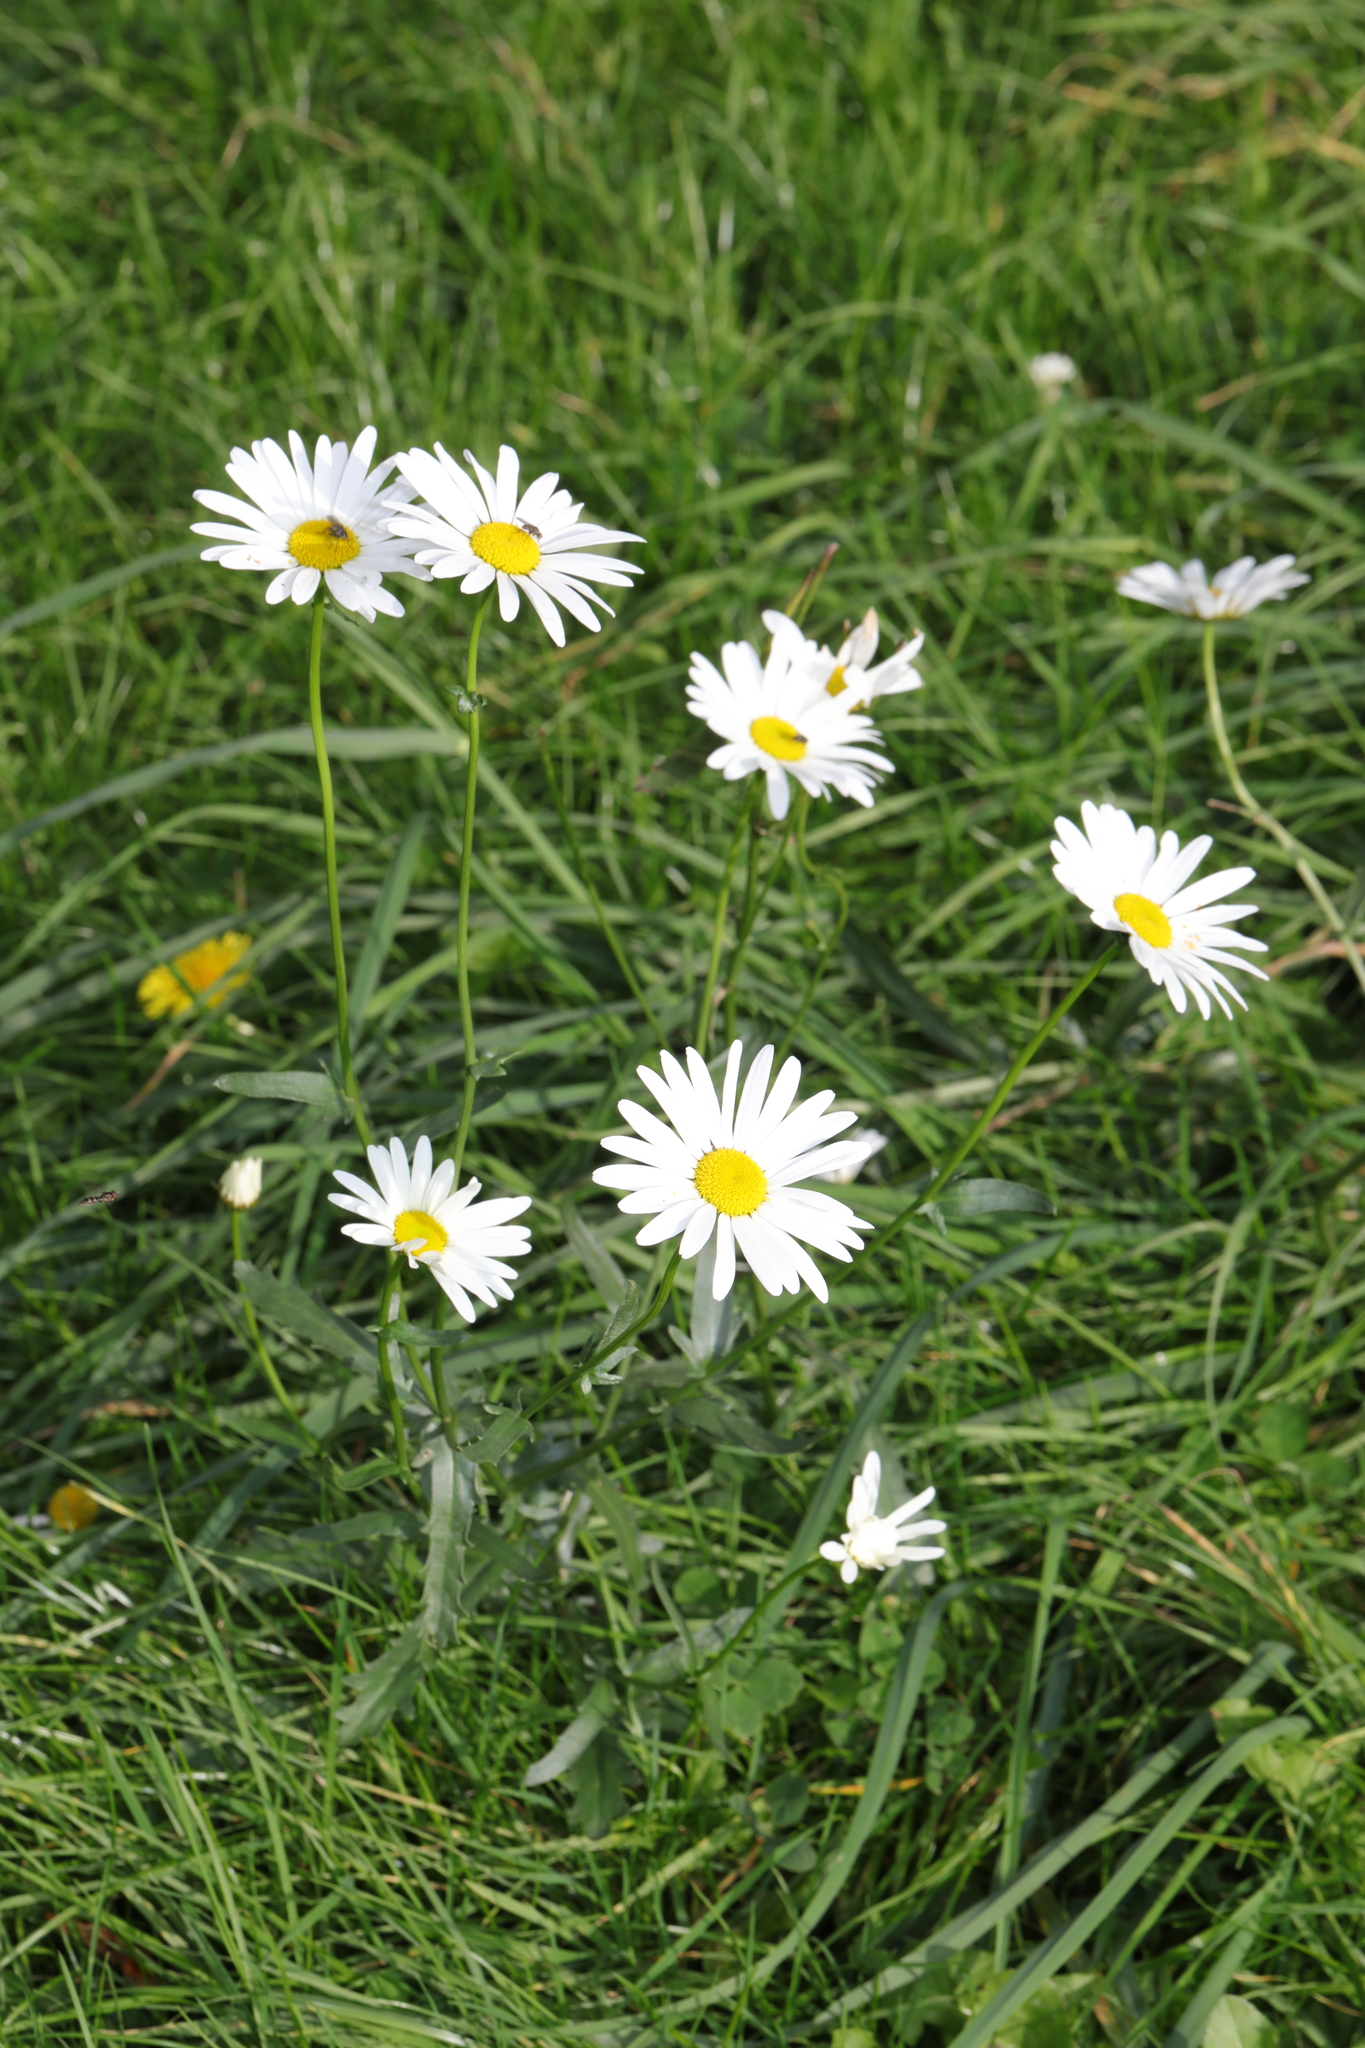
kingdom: Plantae
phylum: Tracheophyta
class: Magnoliopsida
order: Asterales
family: Asteraceae
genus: Leucanthemum
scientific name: Leucanthemum vulgare
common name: Oxeye daisy
